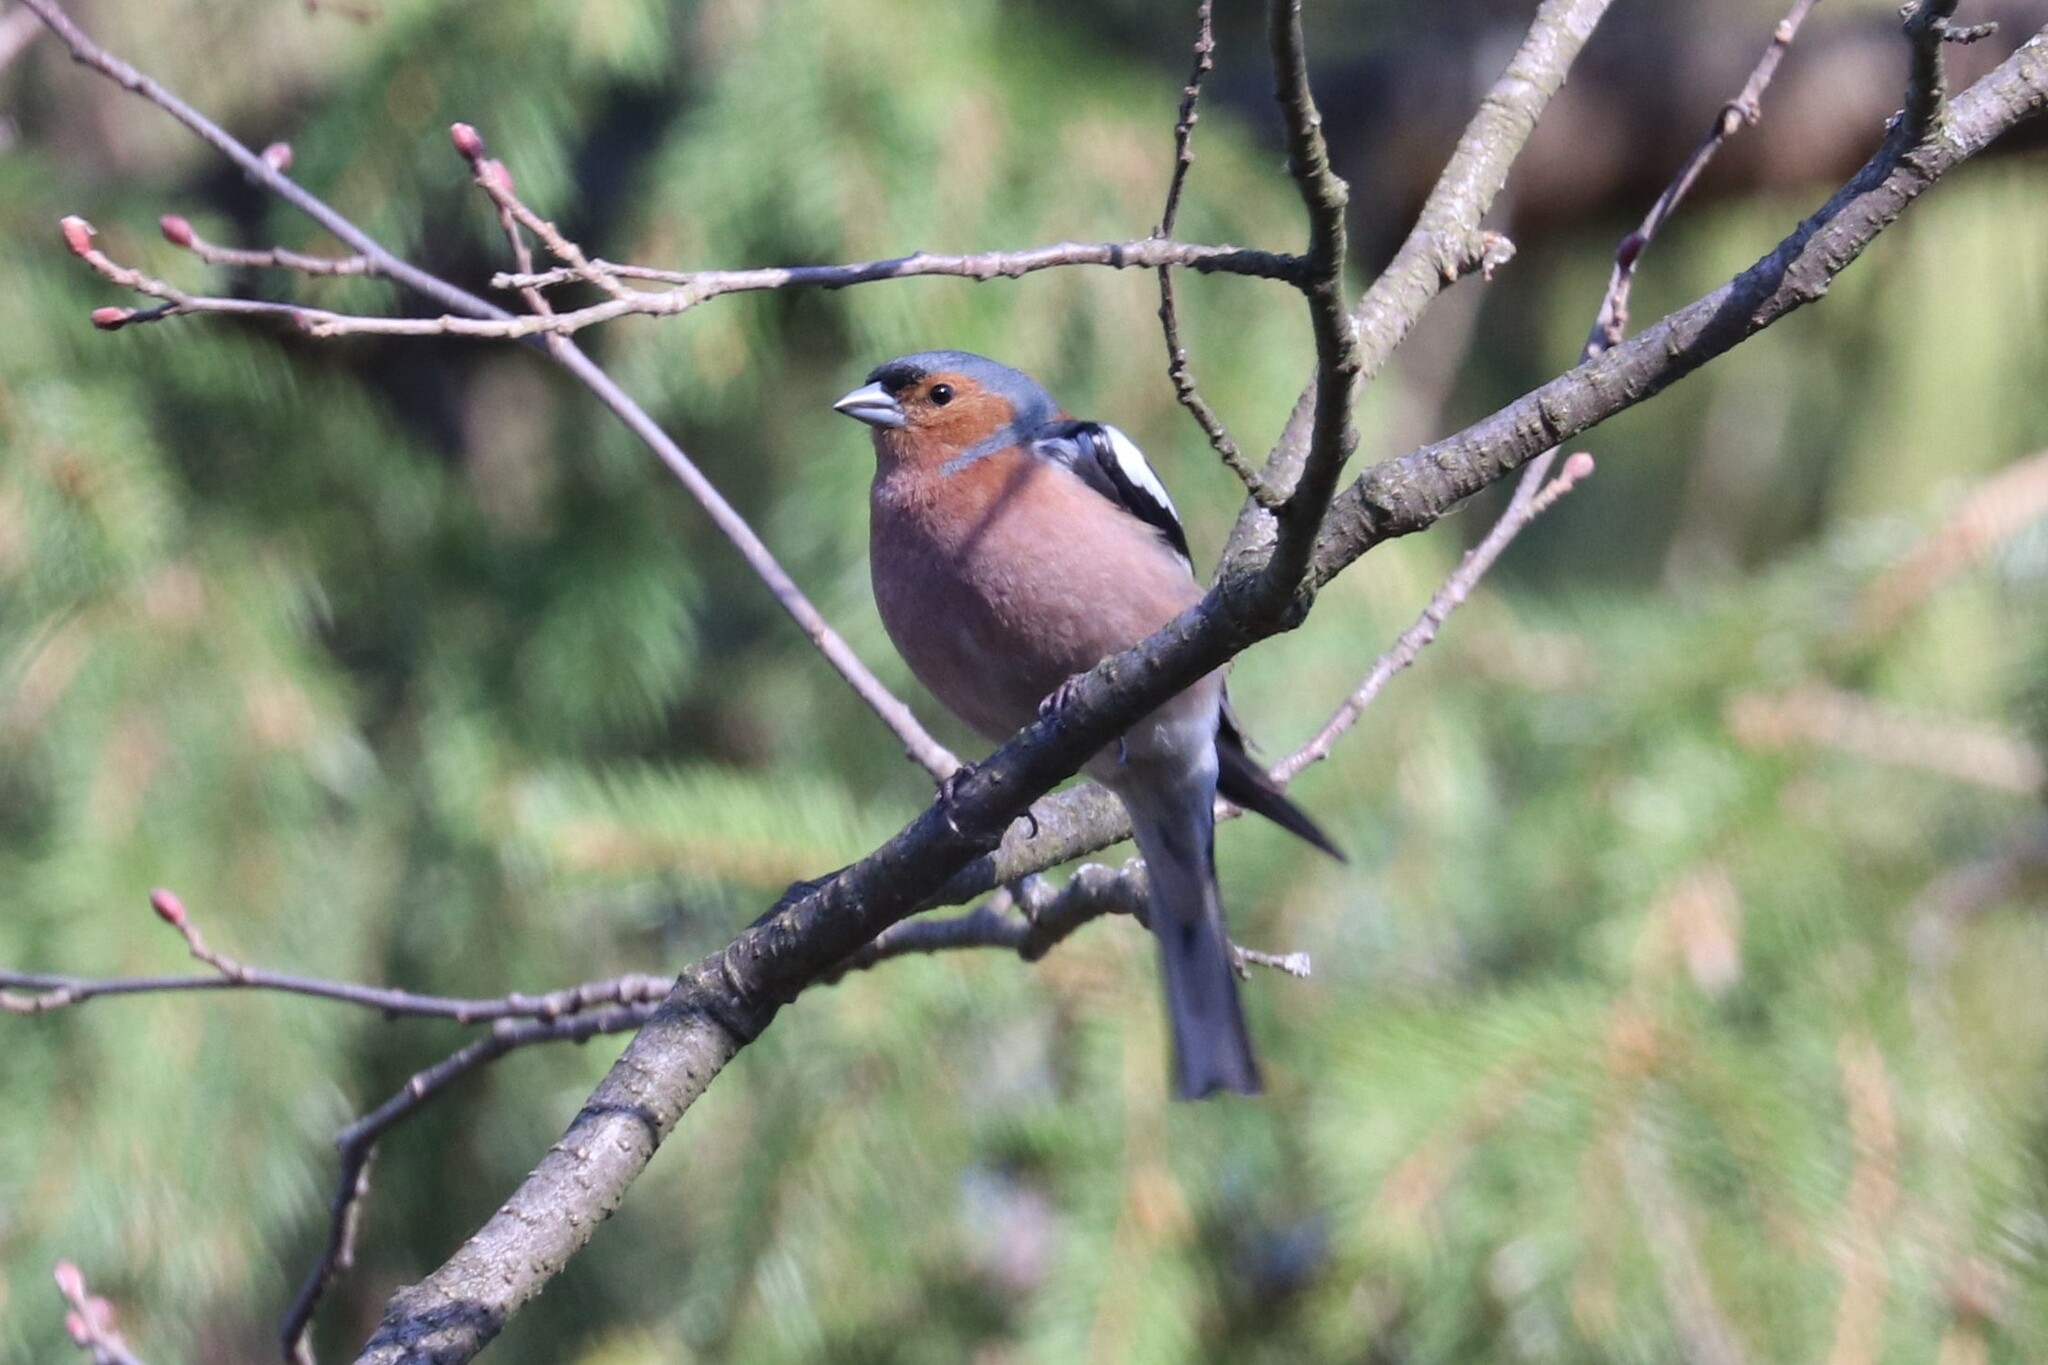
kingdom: Animalia
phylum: Chordata
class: Aves
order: Passeriformes
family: Fringillidae
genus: Fringilla
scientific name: Fringilla coelebs
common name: Common chaffinch
